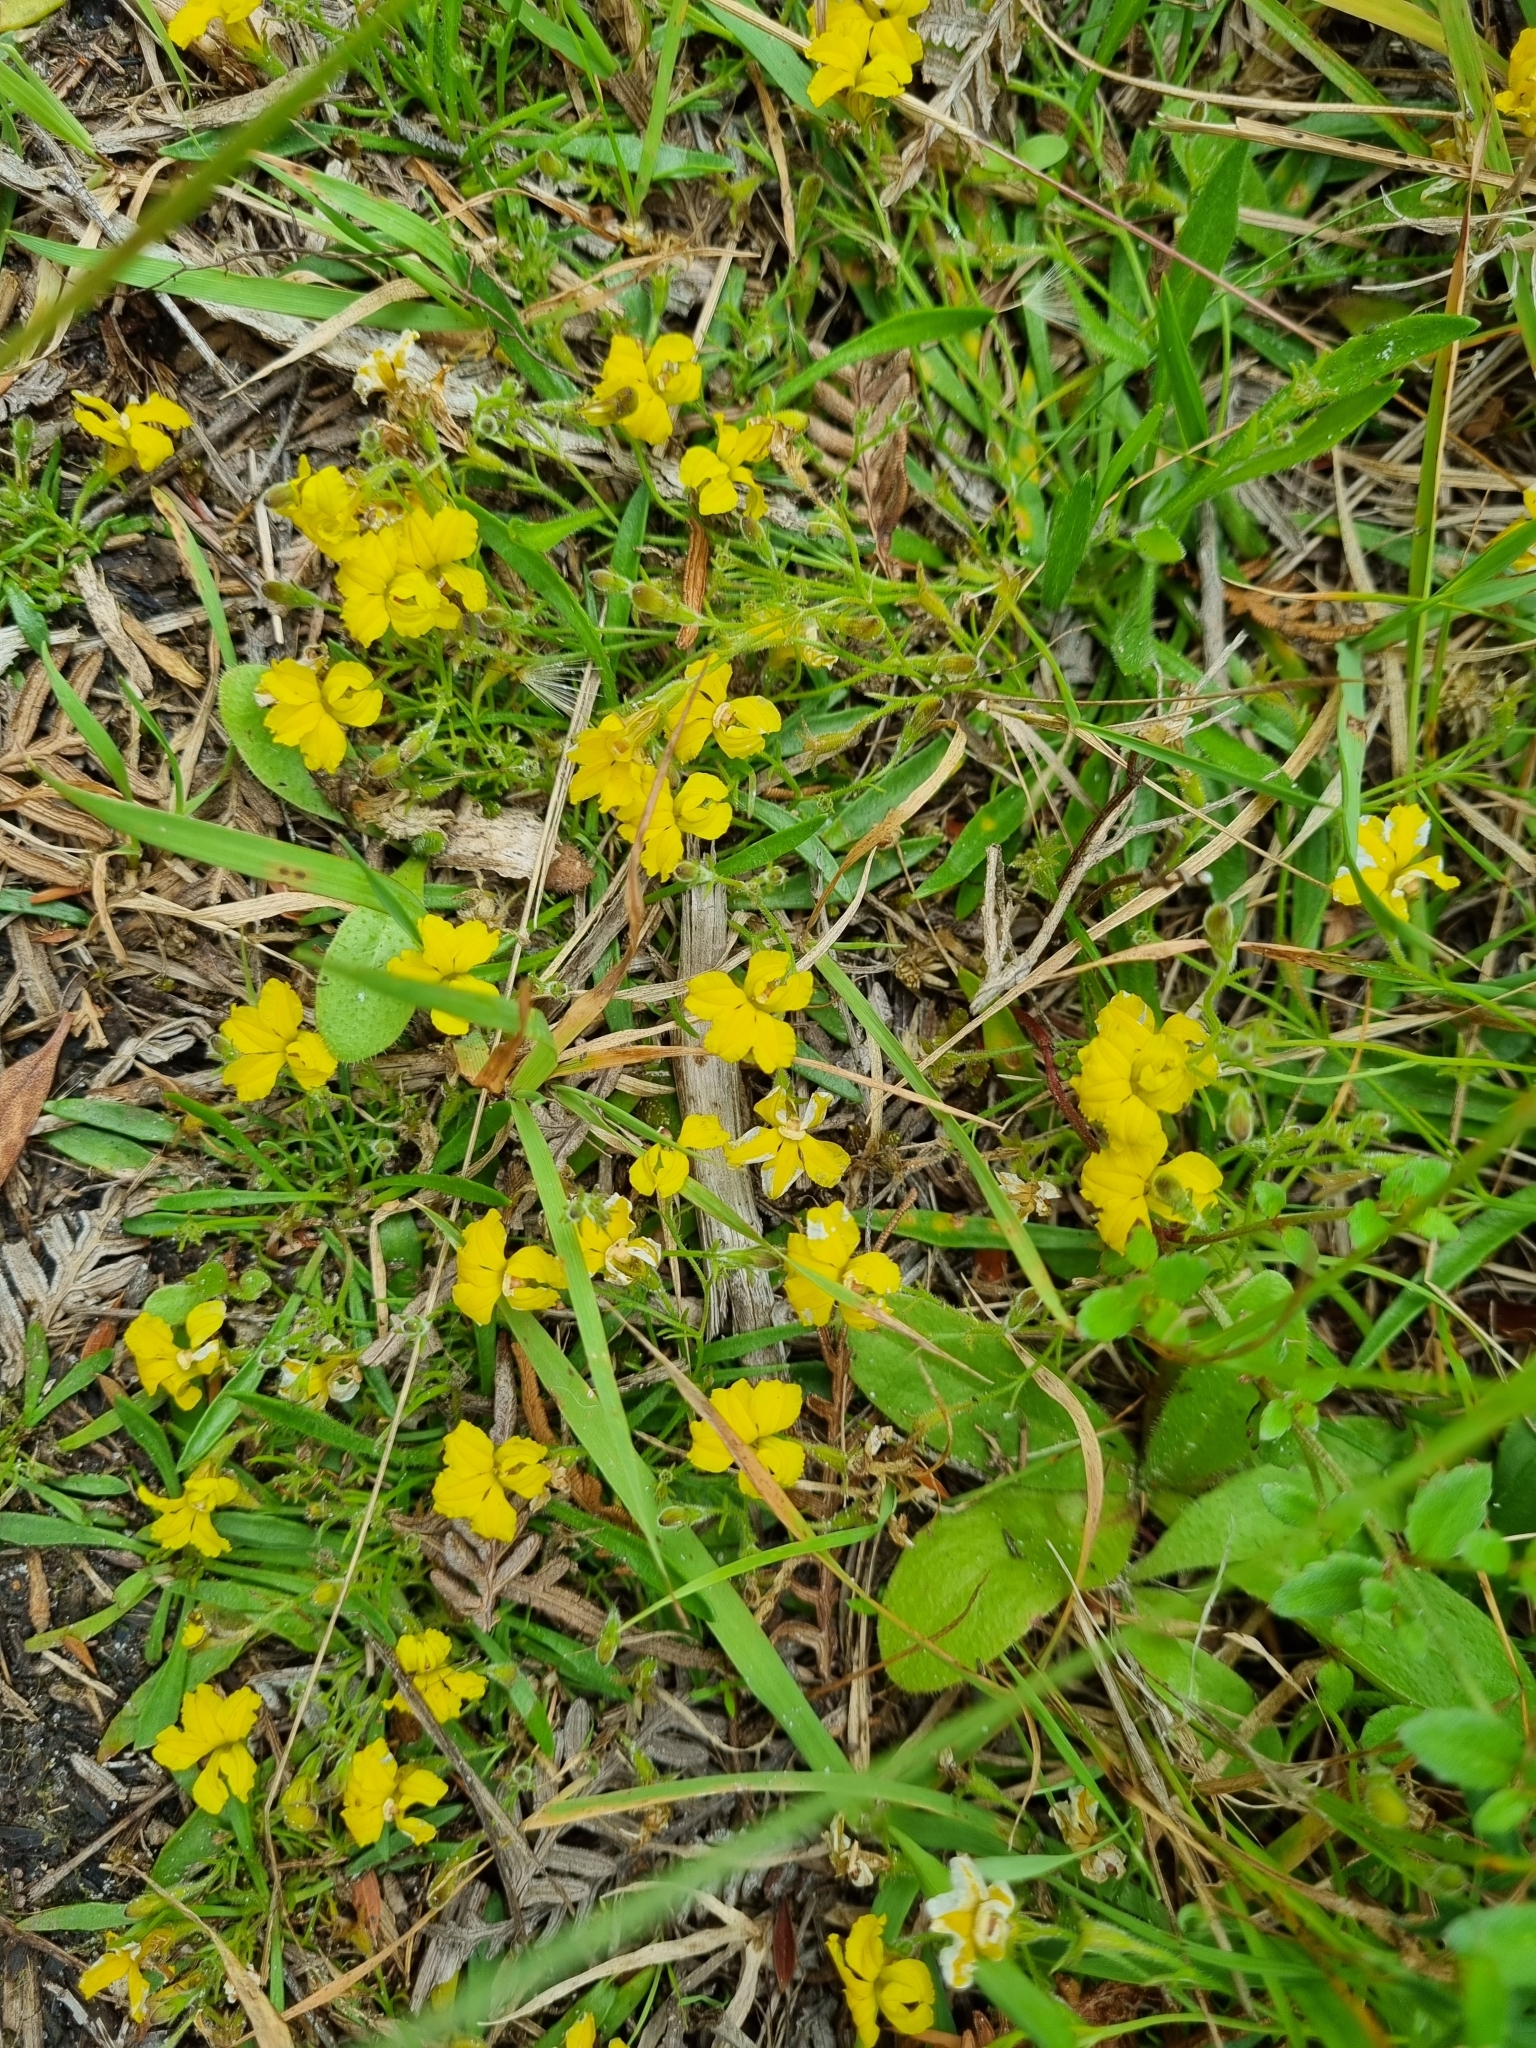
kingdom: Plantae
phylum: Tracheophyta
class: Magnoliopsida
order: Asterales
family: Goodeniaceae
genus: Goodenia
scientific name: Goodenia humilis
